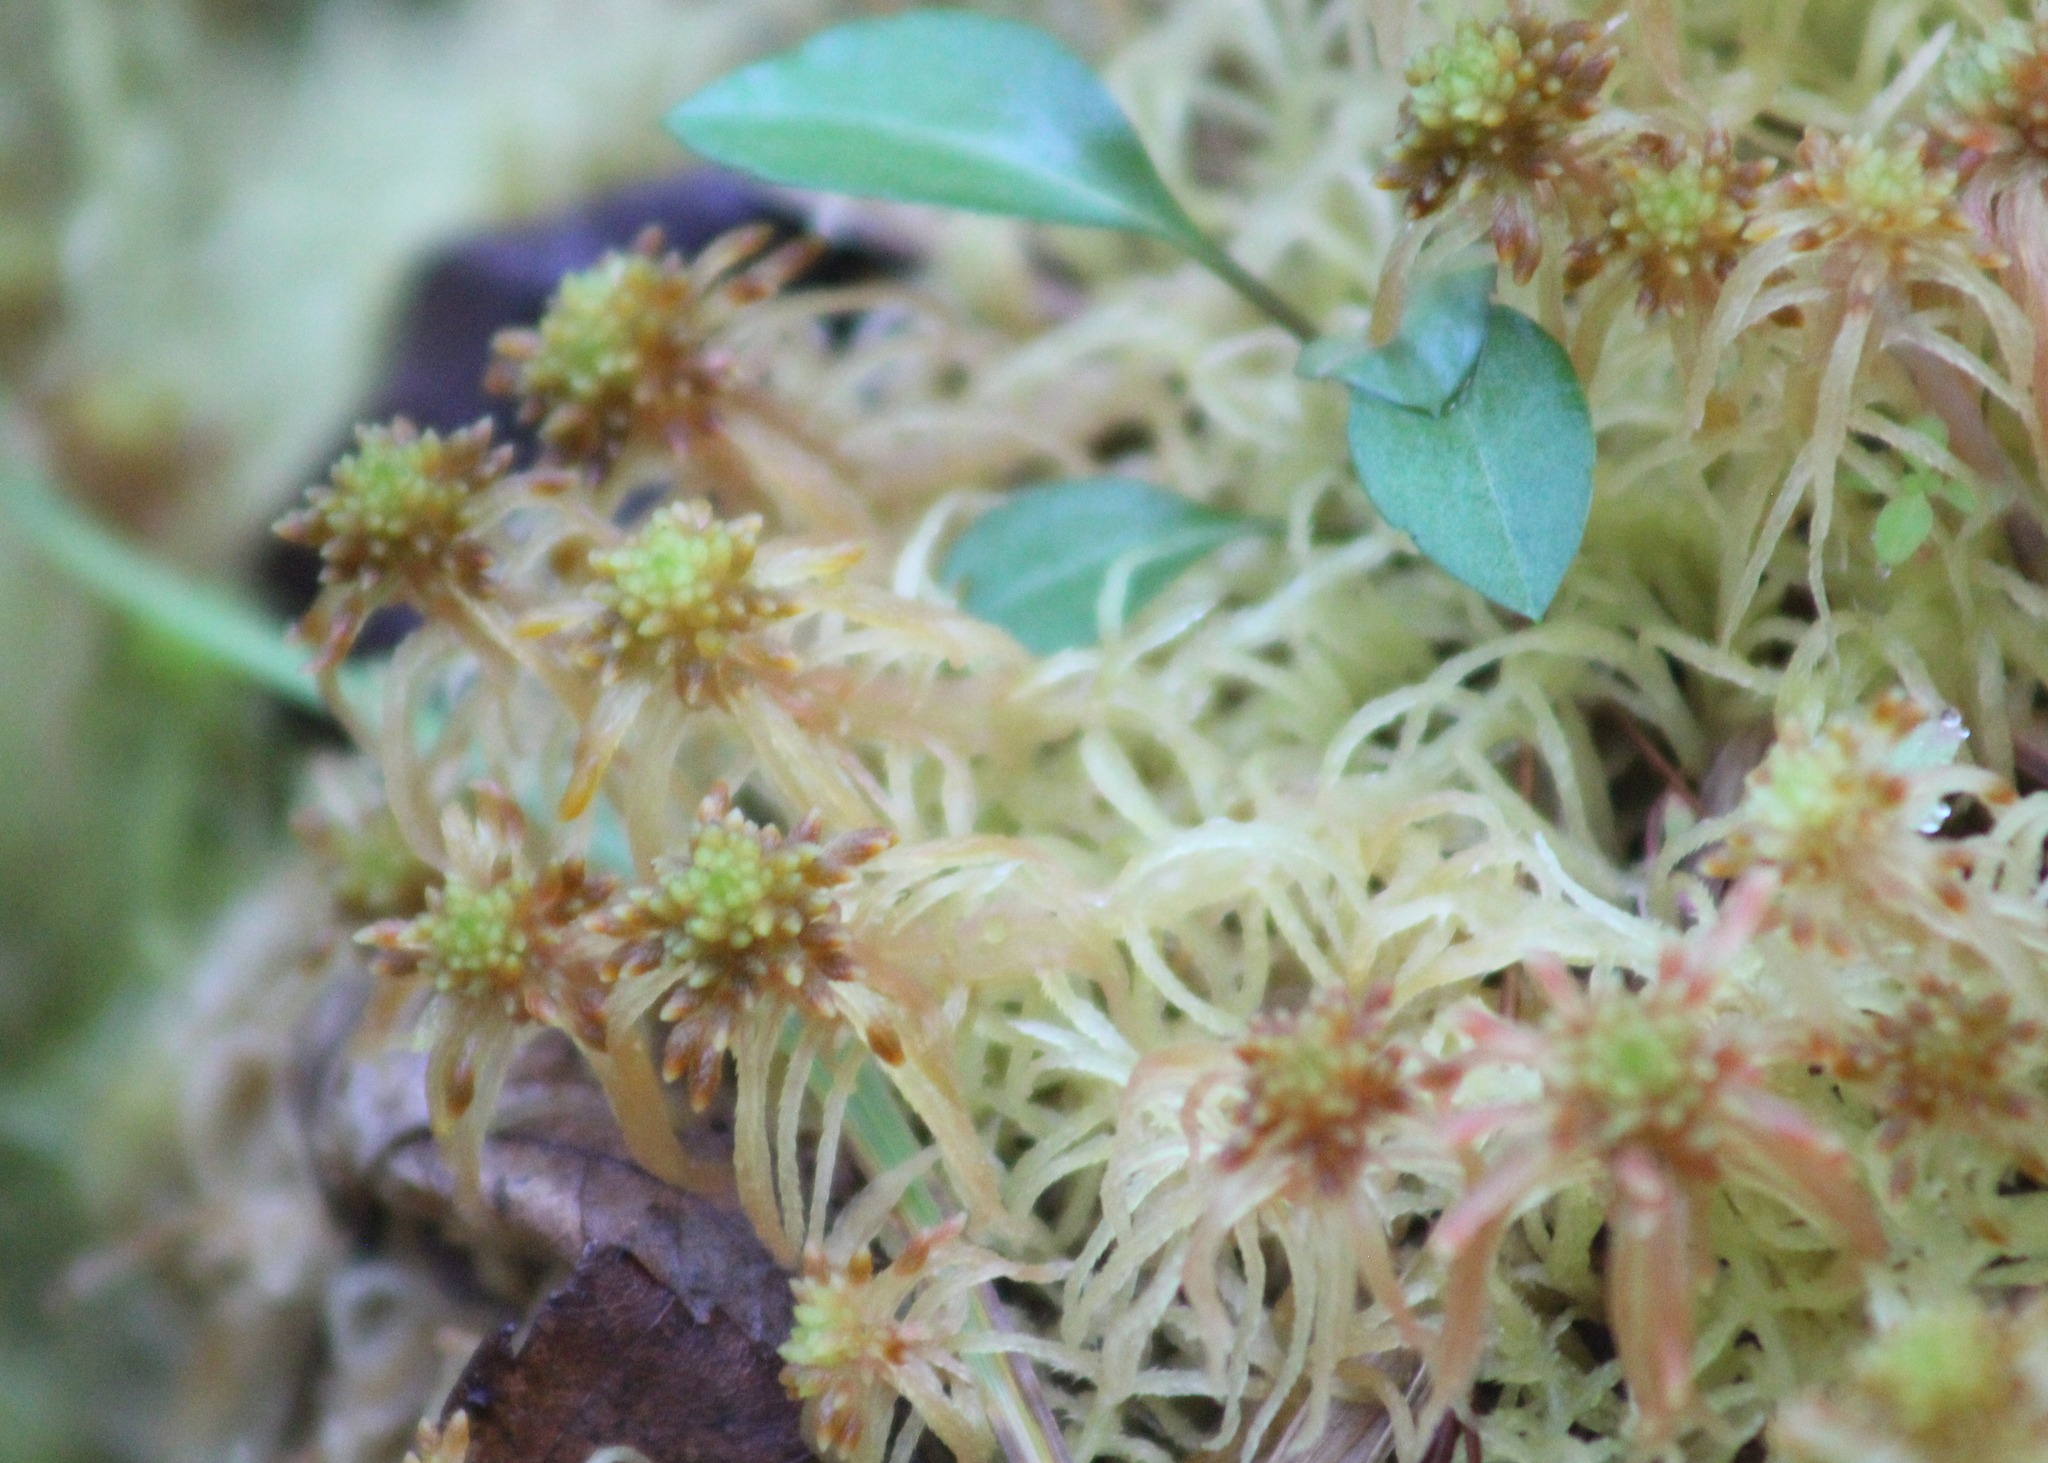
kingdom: Plantae
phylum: Bryophyta
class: Sphagnopsida
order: Sphagnales
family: Sphagnaceae
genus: Sphagnum
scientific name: Sphagnum flexuosum
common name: Flexible peat moss
